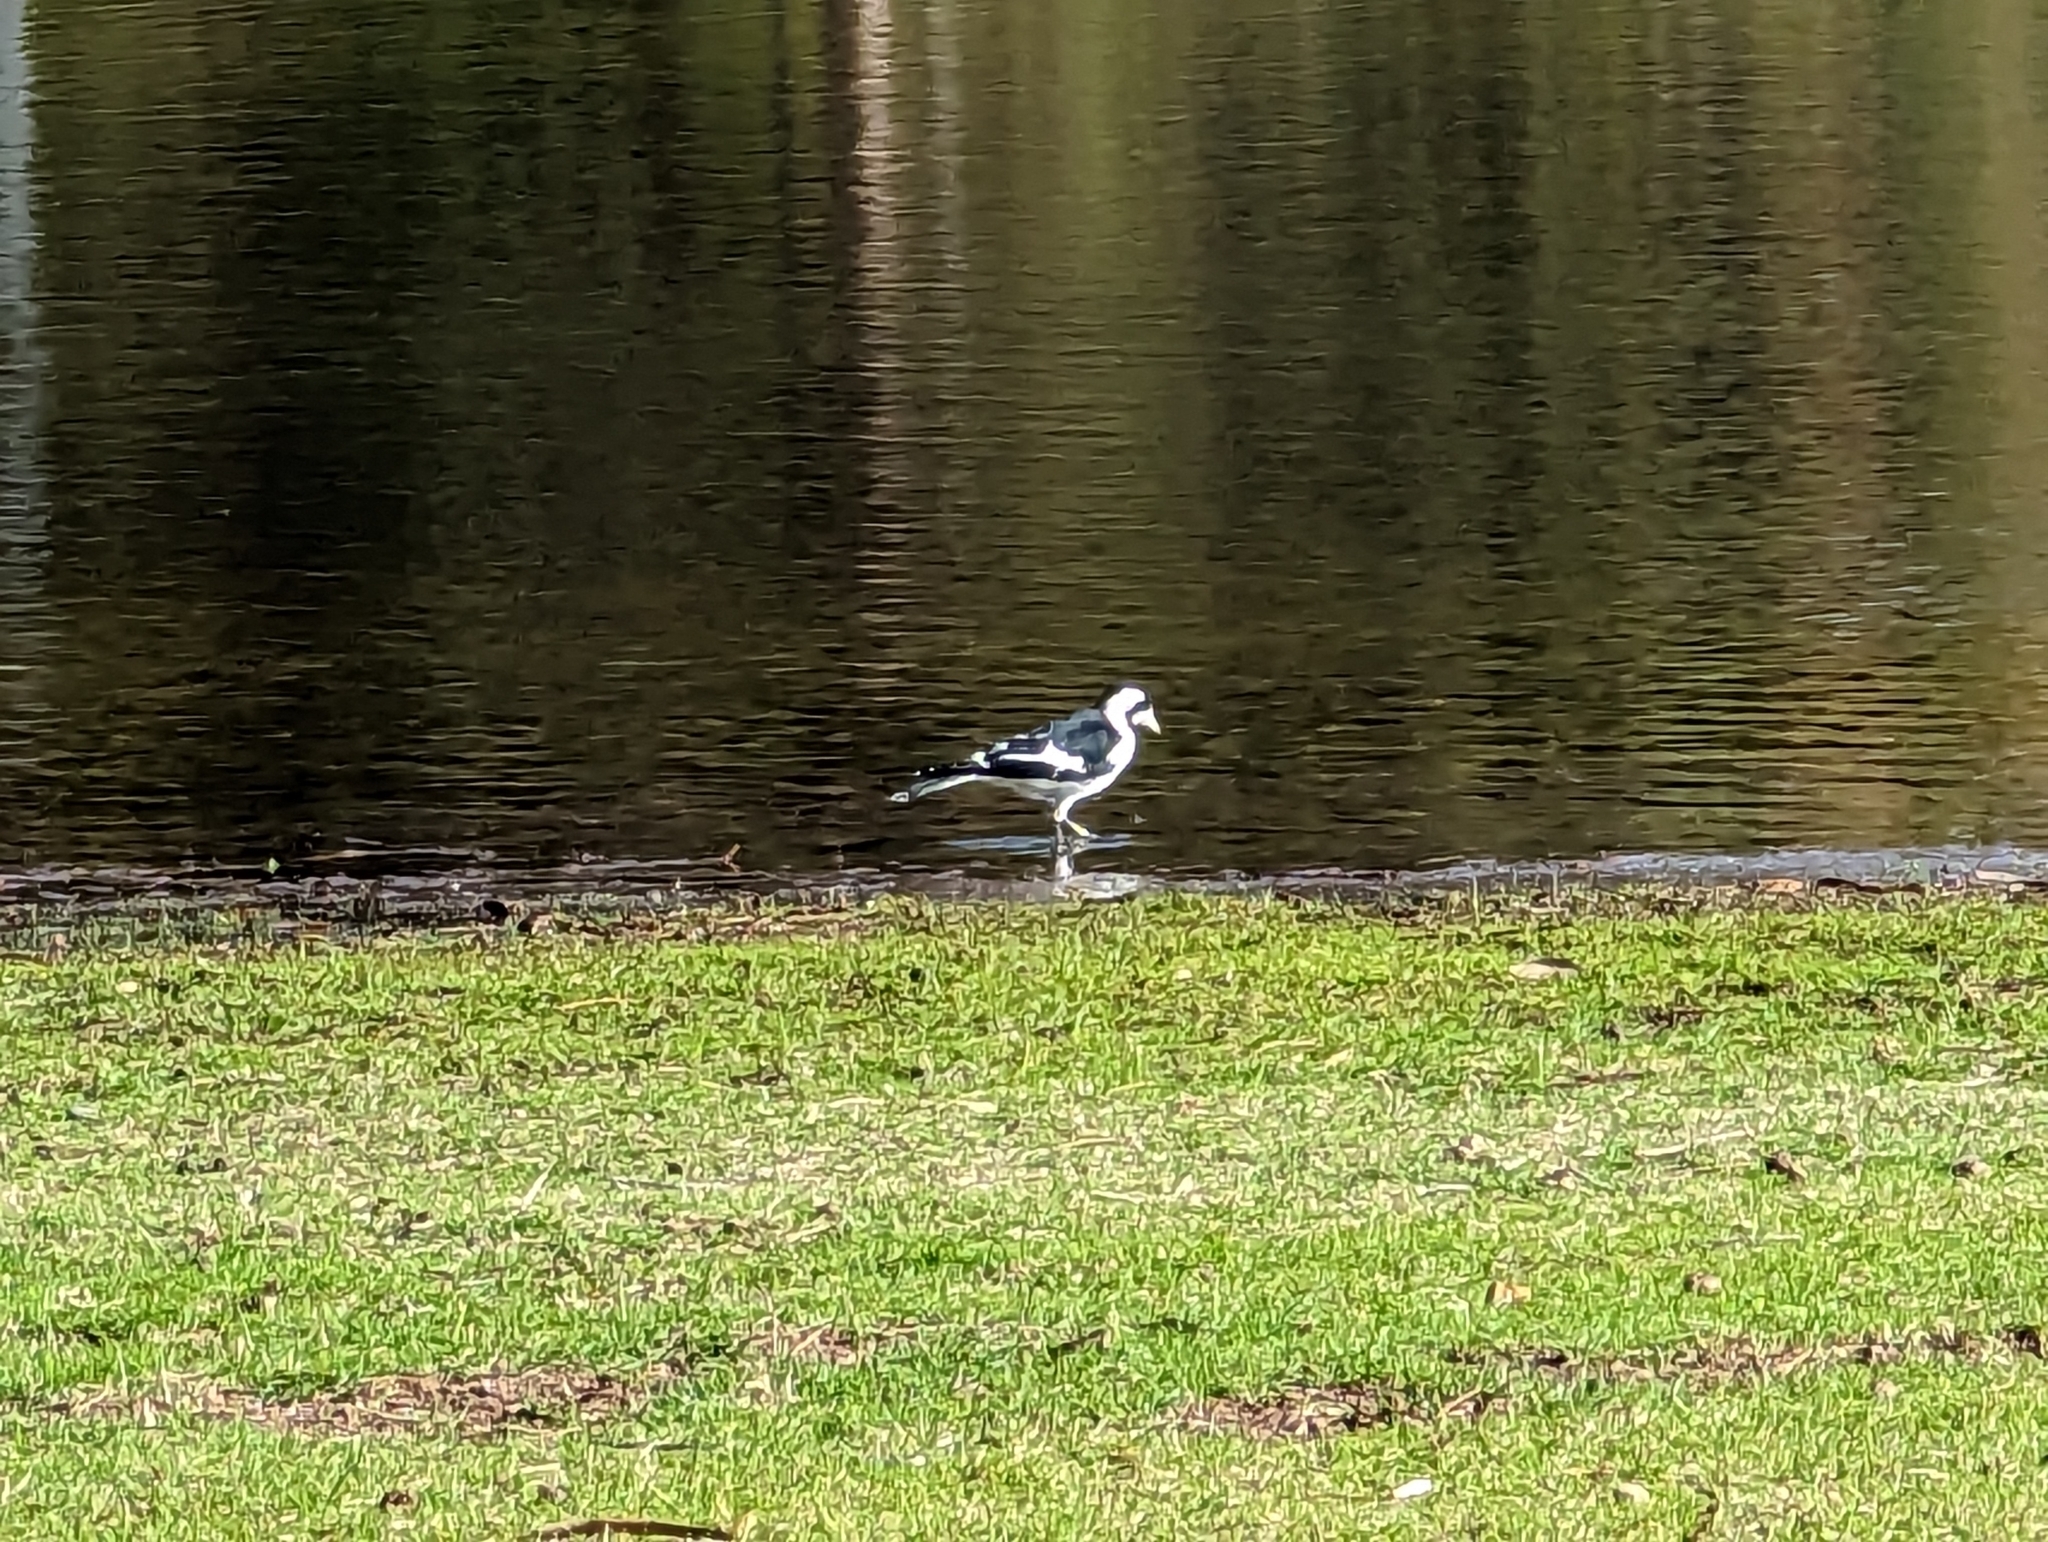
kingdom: Animalia
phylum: Chordata
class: Aves
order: Passeriformes
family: Monarchidae
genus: Grallina
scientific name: Grallina cyanoleuca
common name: Magpie-lark
